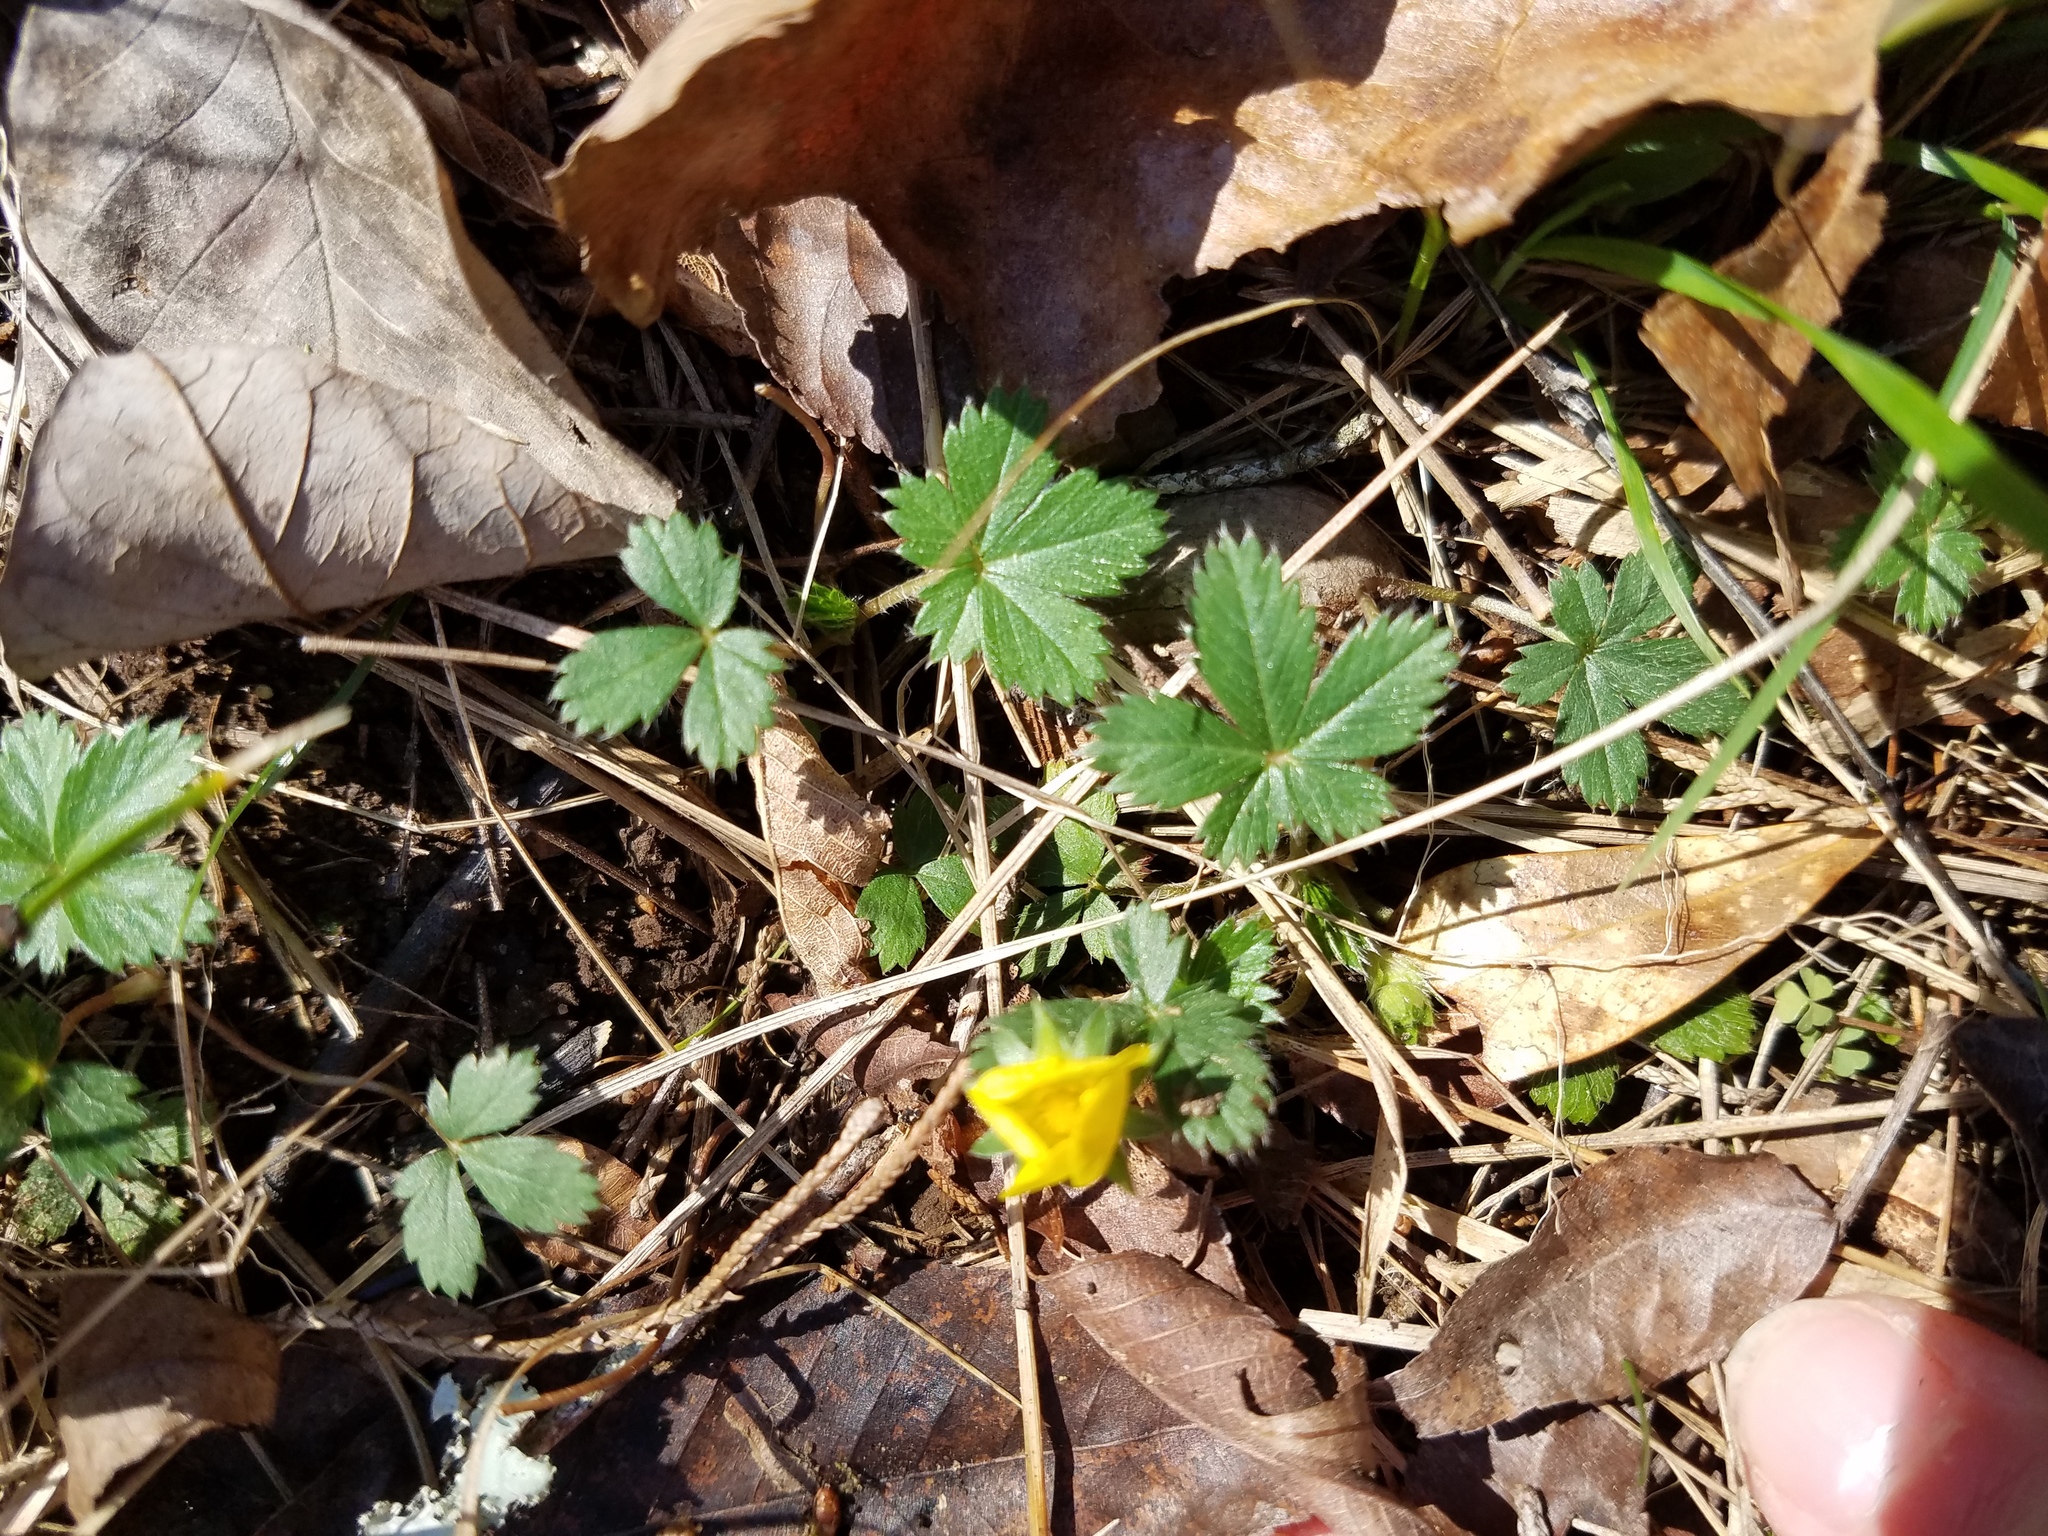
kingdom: Plantae
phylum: Tracheophyta
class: Magnoliopsida
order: Rosales
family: Rosaceae
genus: Potentilla
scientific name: Potentilla canadensis
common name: Canada cinquefoil
